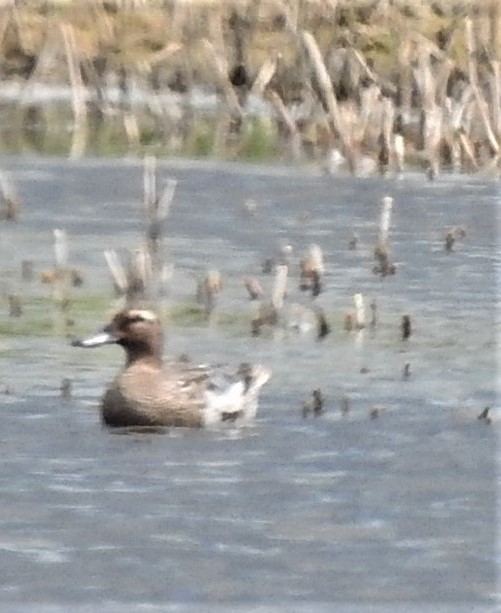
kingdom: Animalia
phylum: Chordata
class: Aves
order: Anseriformes
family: Anatidae
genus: Spatula
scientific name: Spatula querquedula
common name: Garganey
